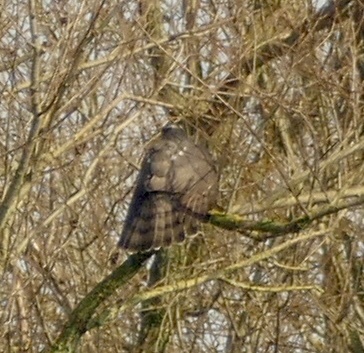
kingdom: Animalia
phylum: Chordata
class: Aves
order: Accipitriformes
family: Accipitridae
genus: Accipiter
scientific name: Accipiter nisus
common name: Eurasian sparrowhawk
